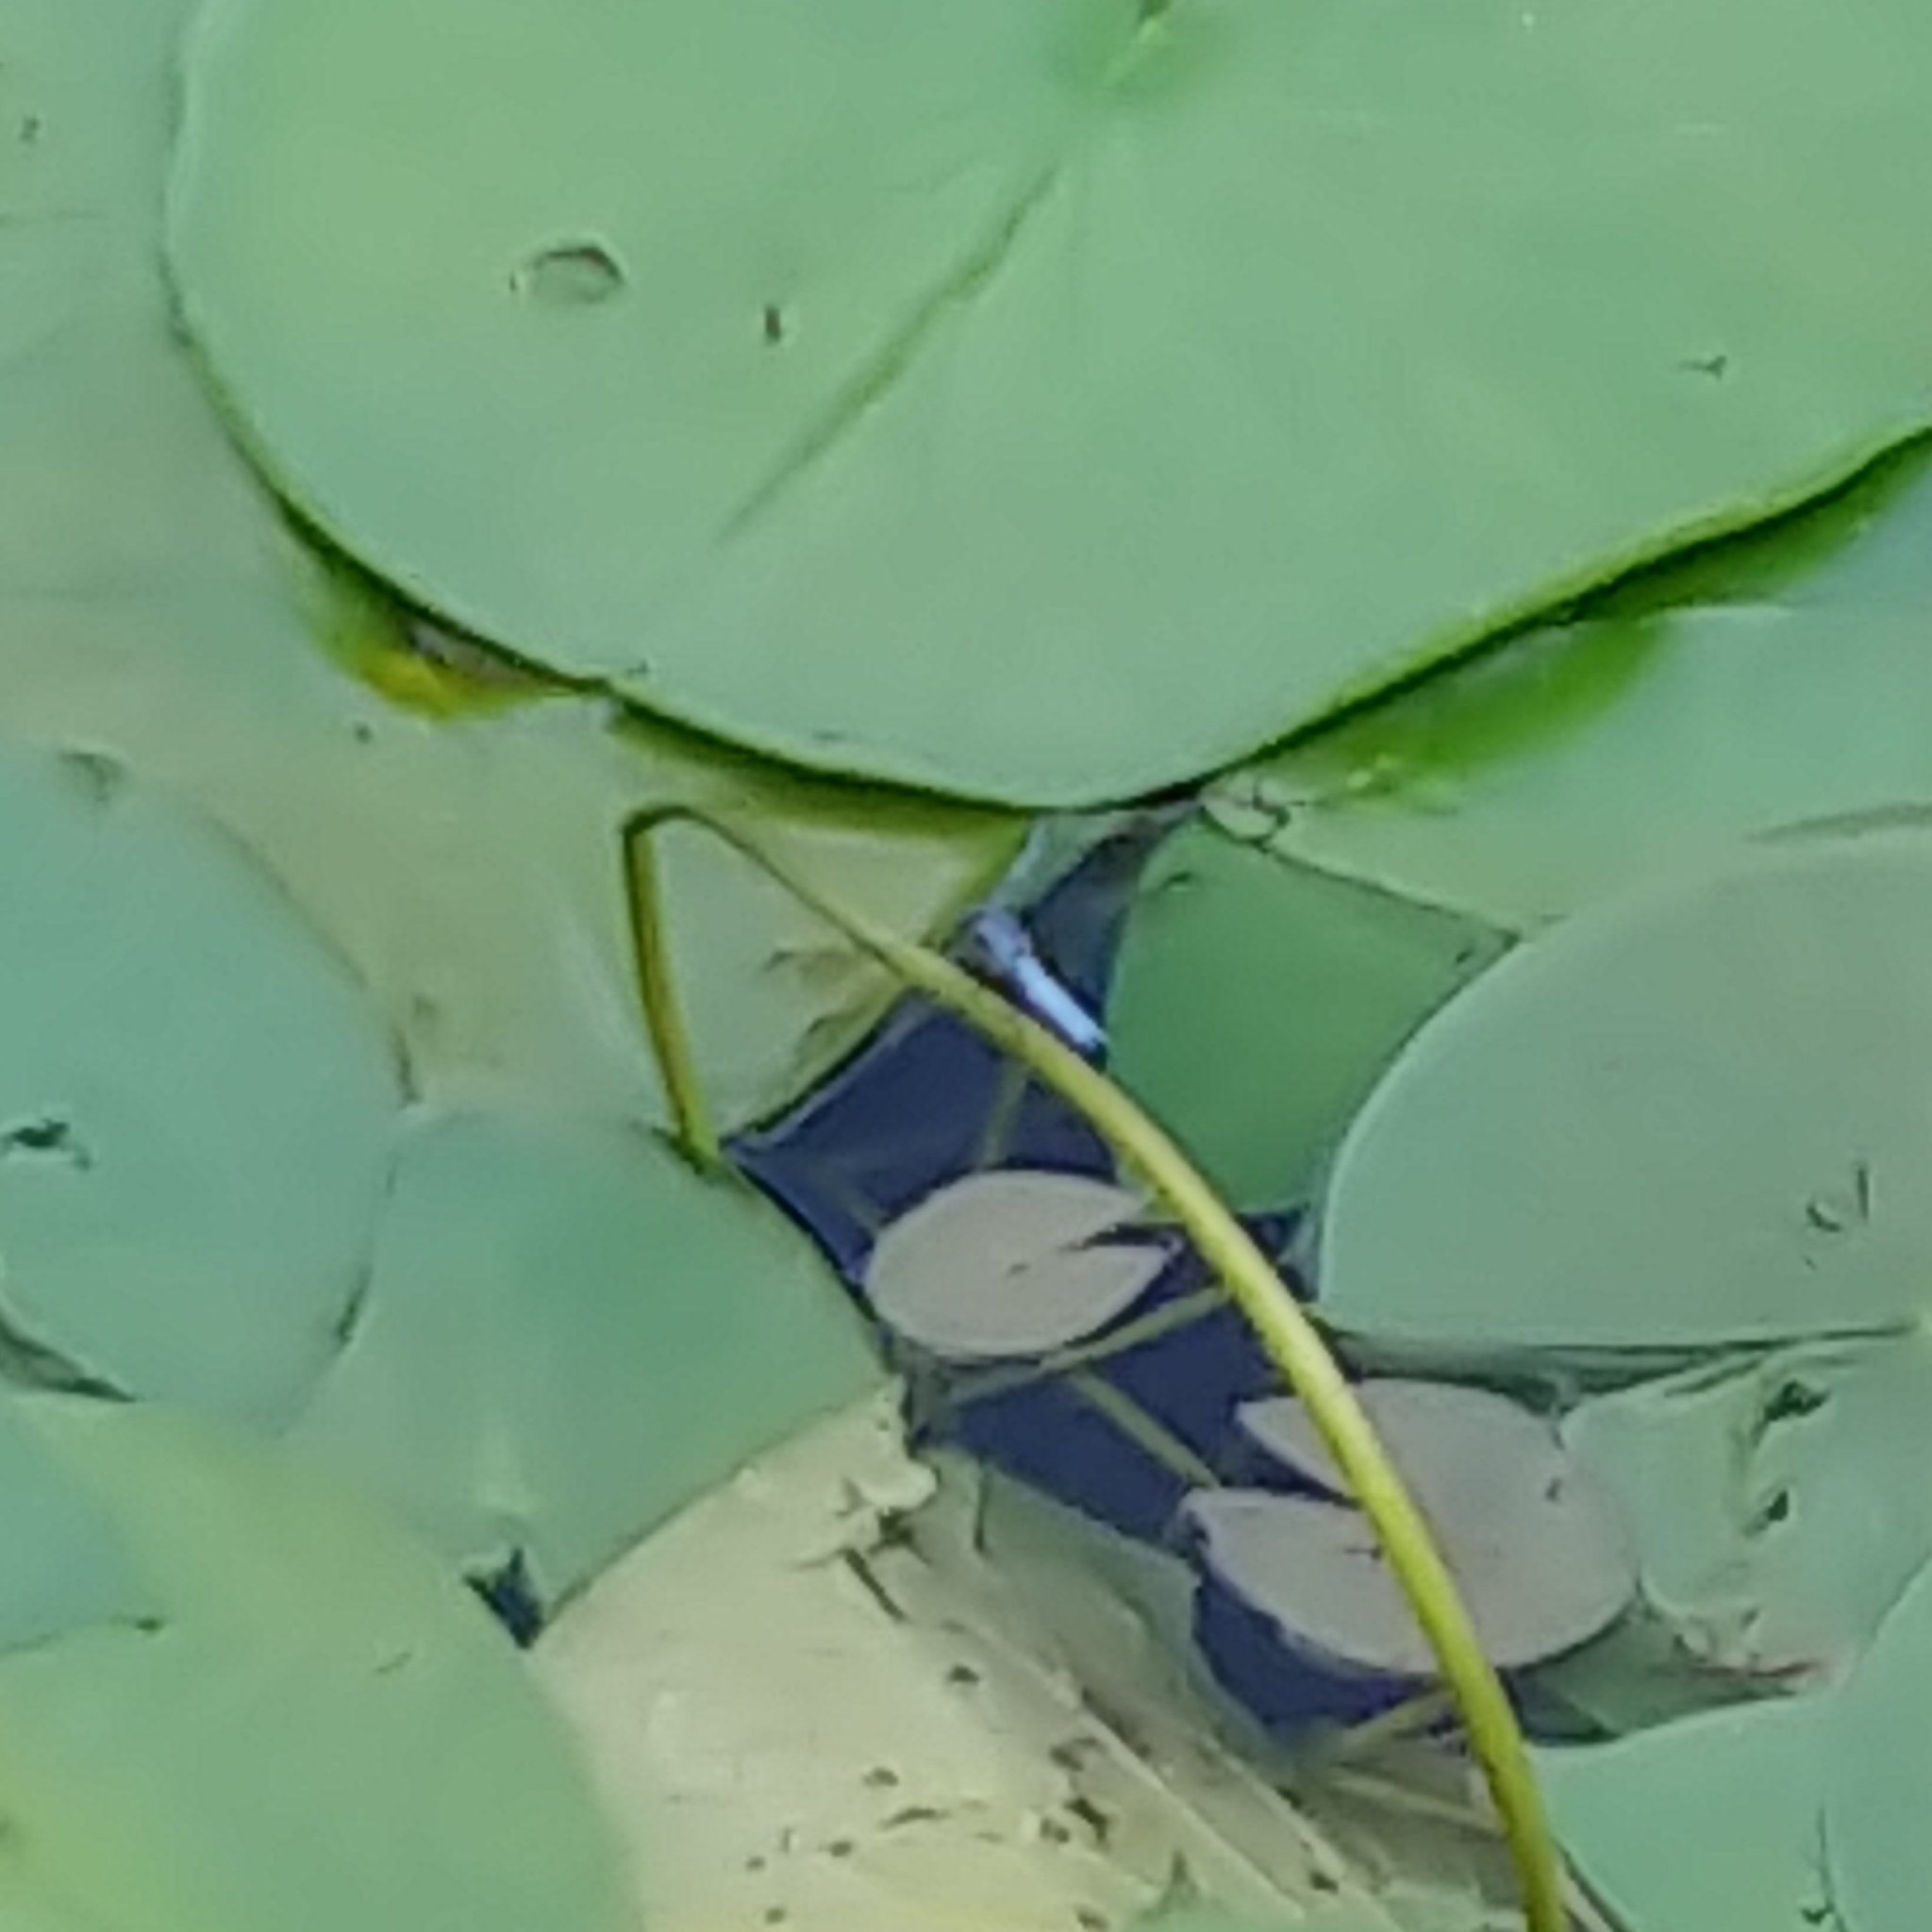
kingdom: Animalia
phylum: Arthropoda
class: Insecta
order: Odonata
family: Libellulidae
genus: Erythemis
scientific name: Erythemis simplicicollis
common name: Eastern pondhawk
